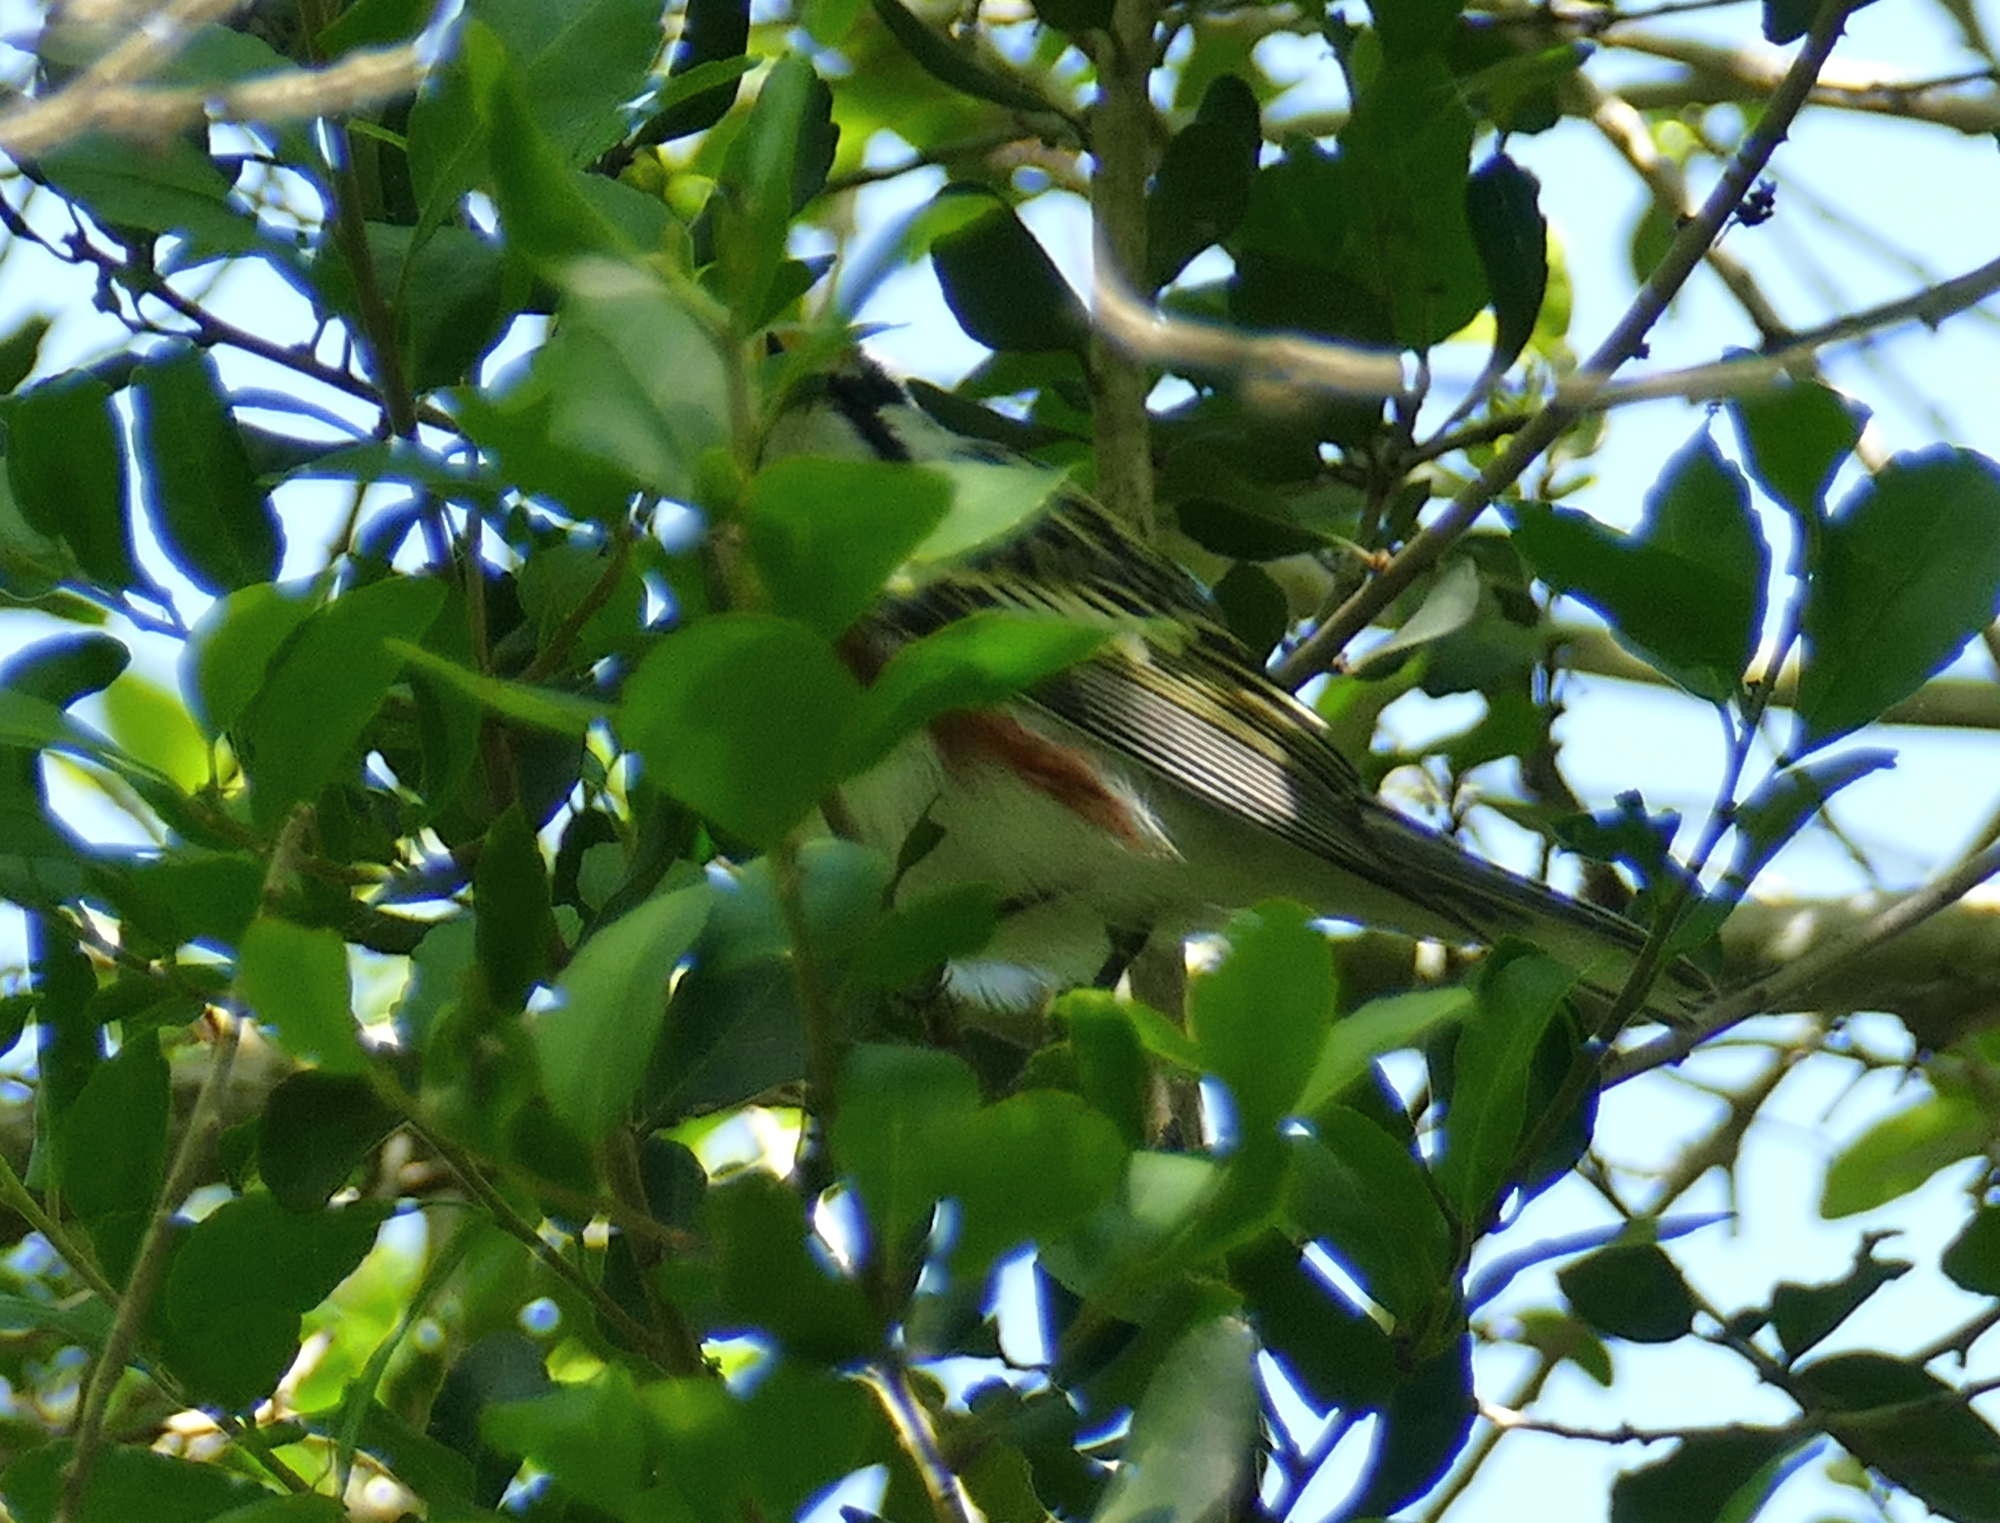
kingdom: Animalia
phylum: Chordata
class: Aves
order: Passeriformes
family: Parulidae
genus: Setophaga
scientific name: Setophaga pensylvanica
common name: Chestnut-sided warbler
